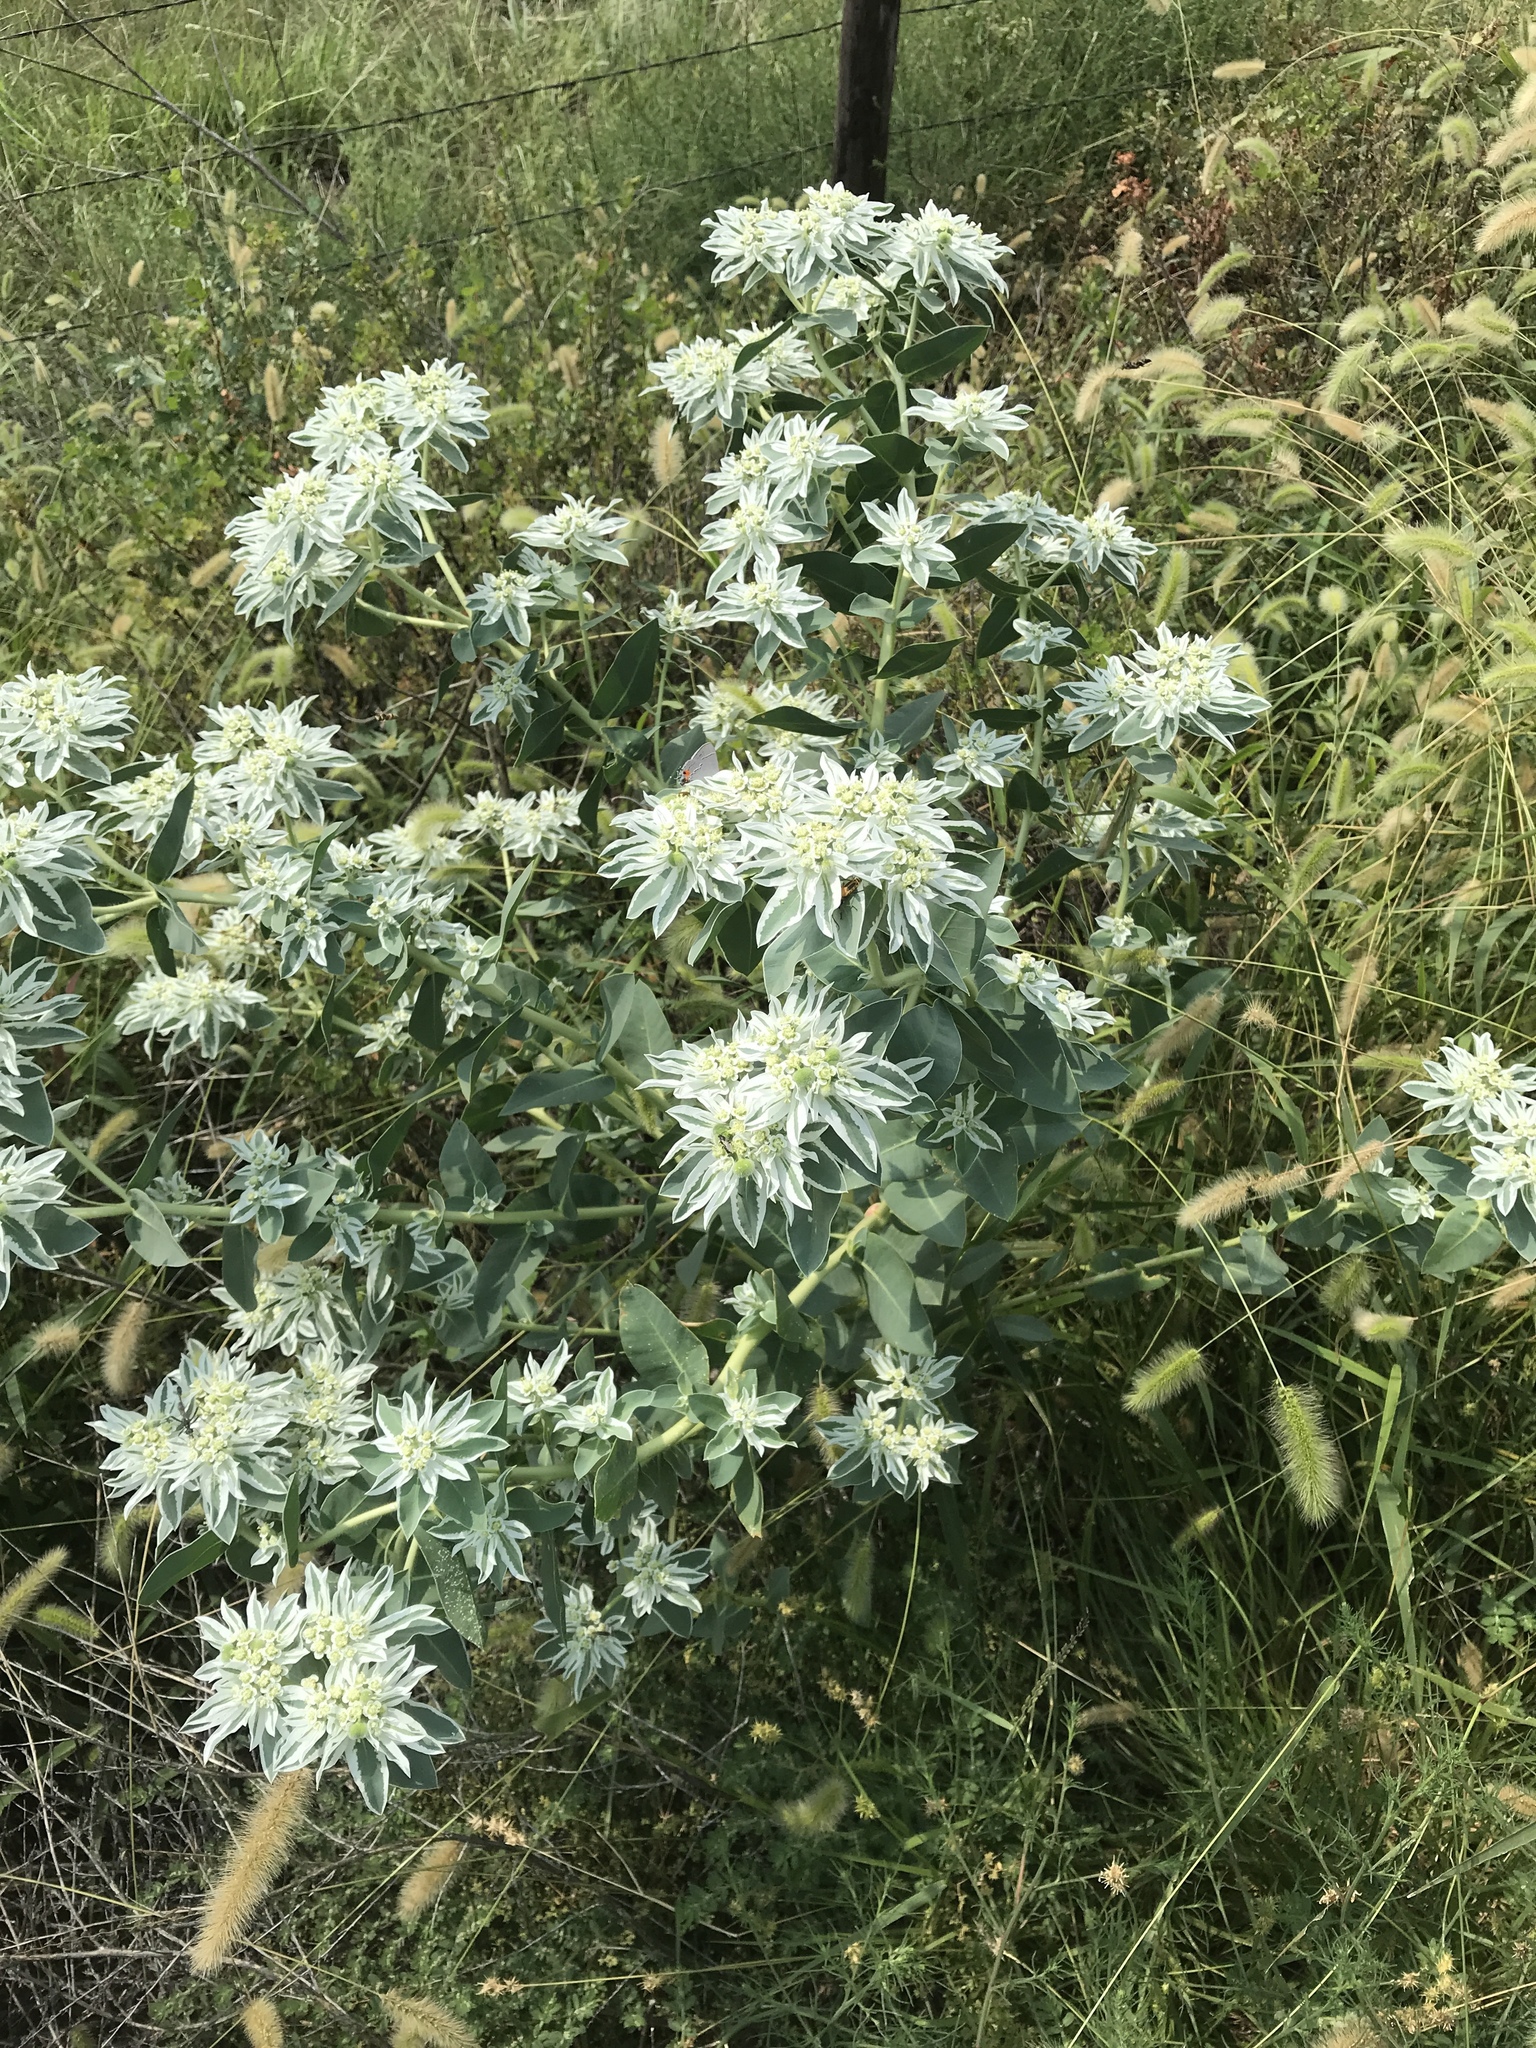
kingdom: Plantae
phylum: Tracheophyta
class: Magnoliopsida
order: Malpighiales
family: Euphorbiaceae
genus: Euphorbia
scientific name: Euphorbia marginata
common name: Ghostweed
